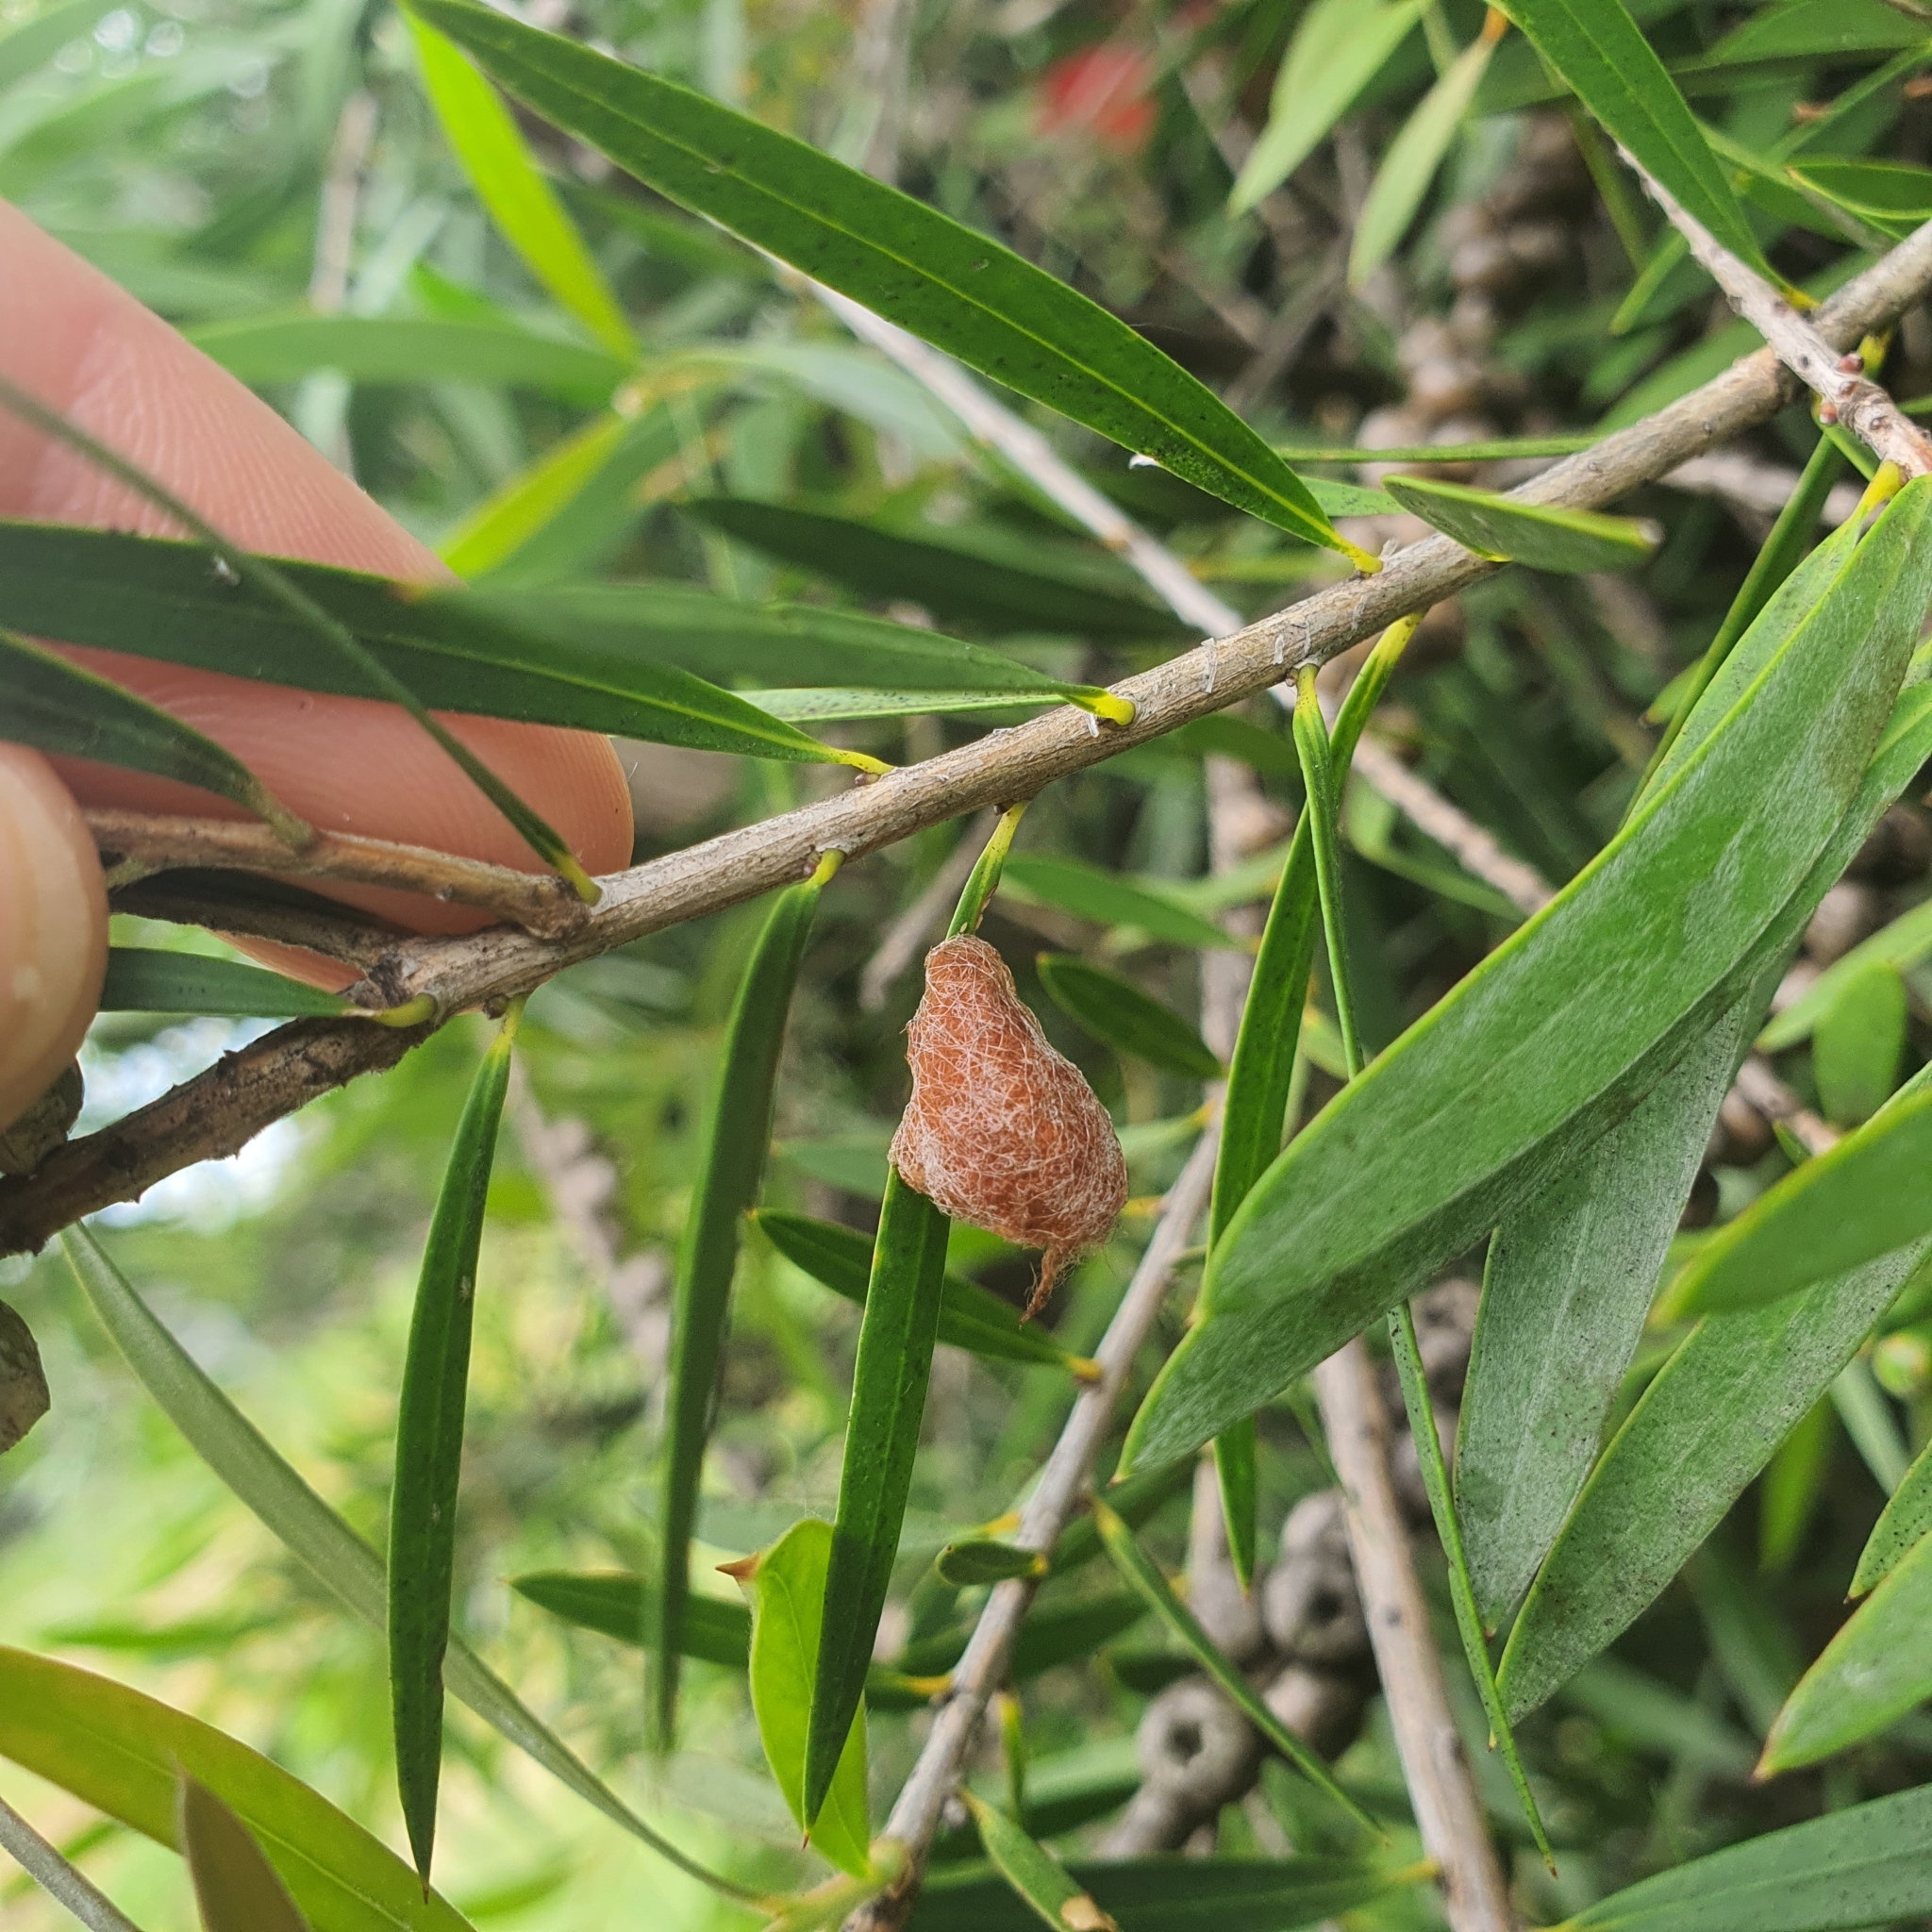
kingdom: Animalia
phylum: Arthropoda
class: Arachnida
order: Araneae
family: Araneidae
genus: Austracantha
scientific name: Austracantha minax
